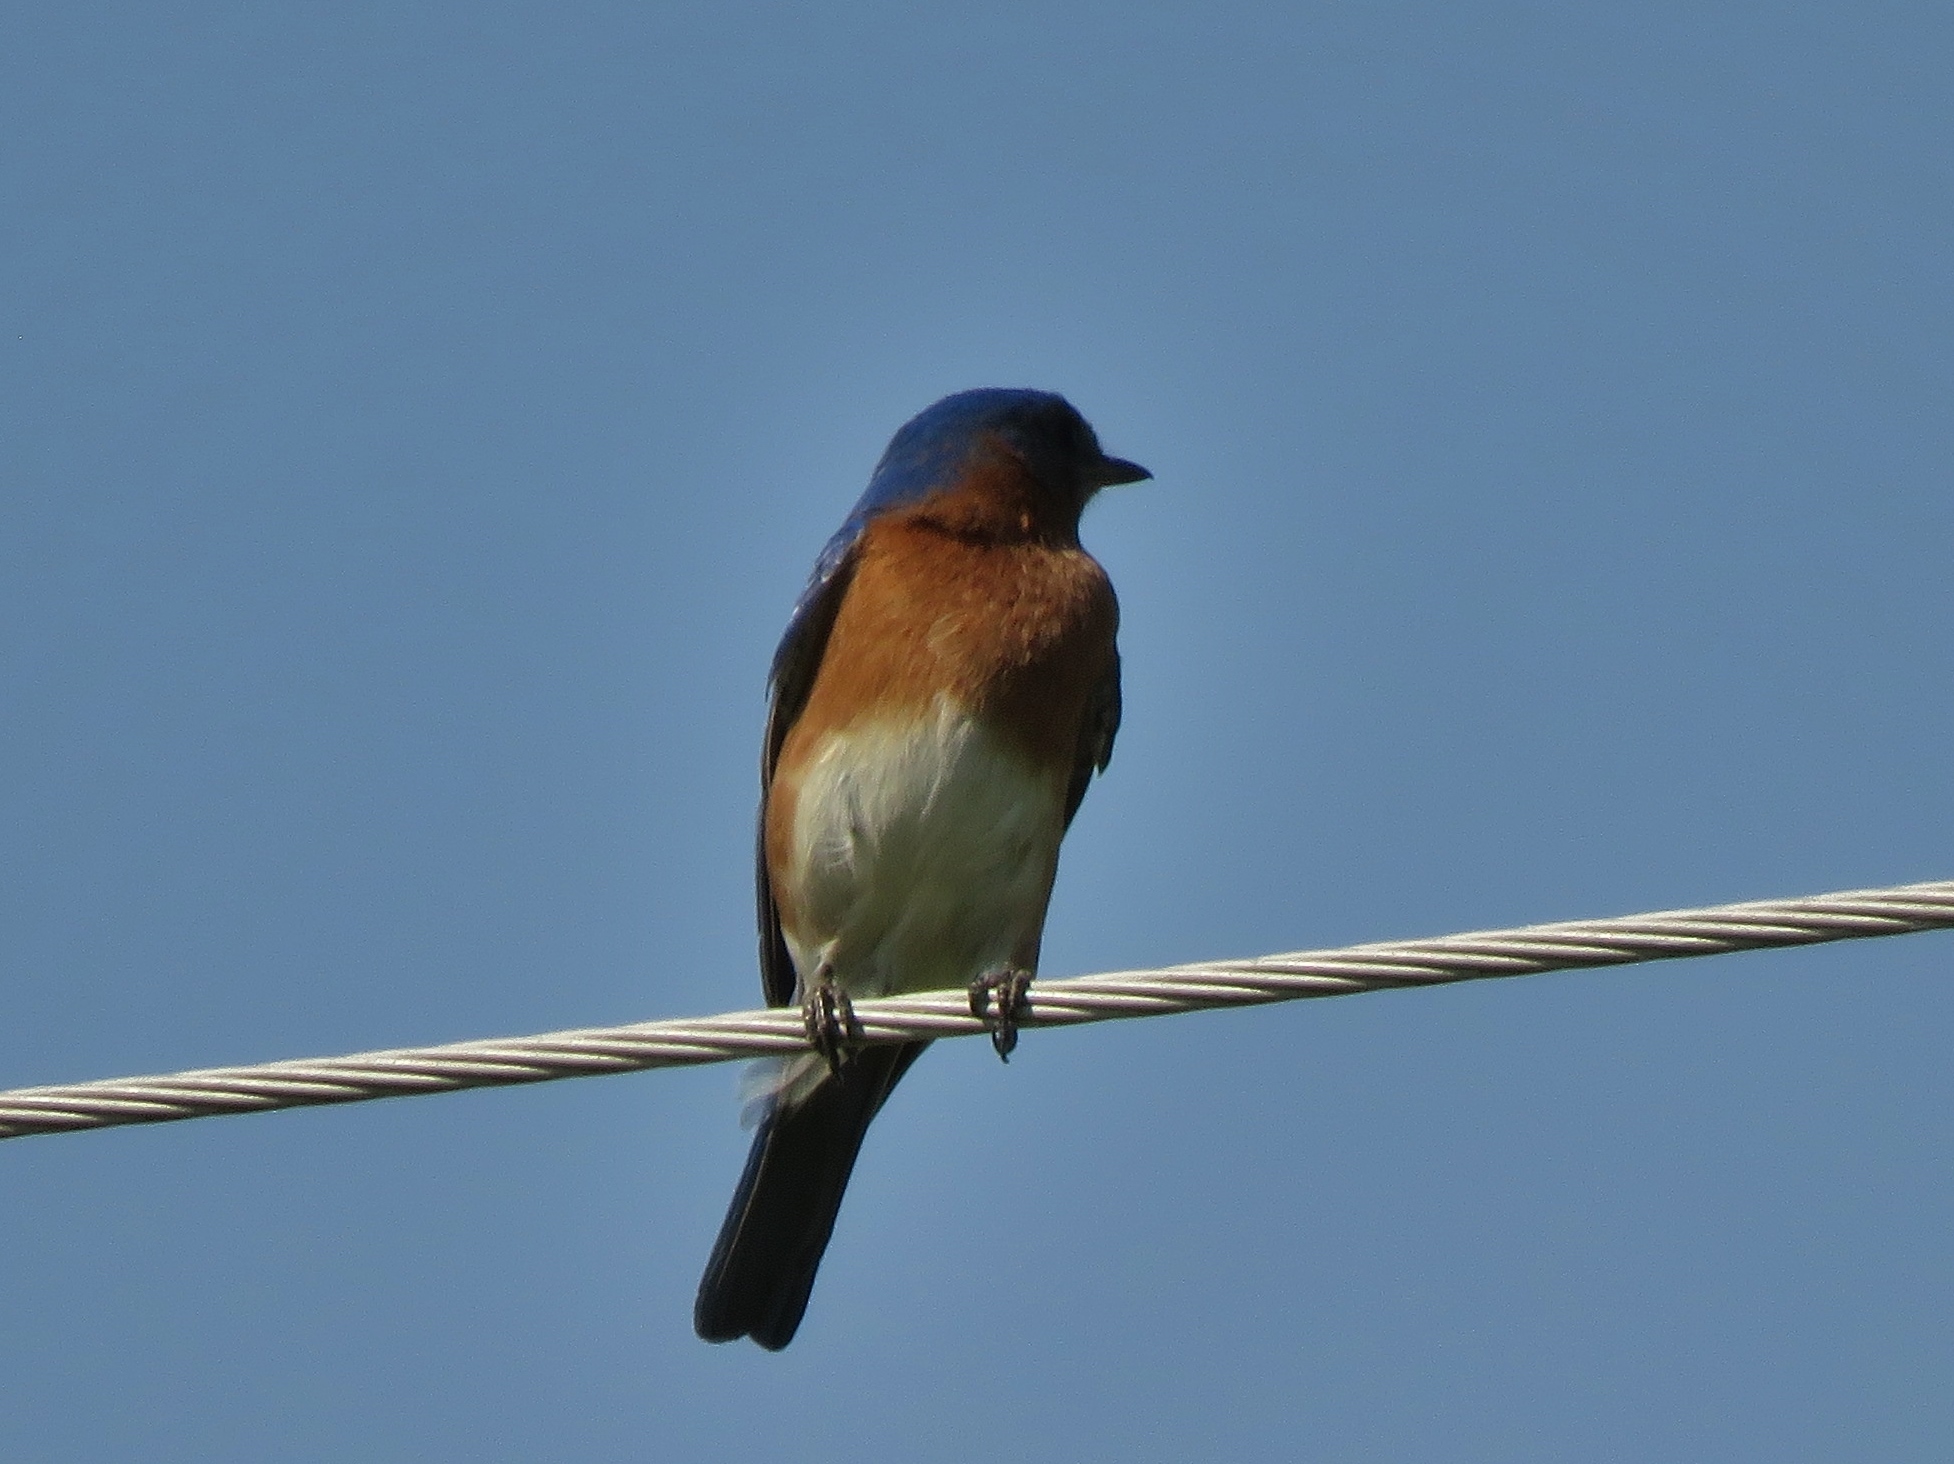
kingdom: Animalia
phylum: Chordata
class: Aves
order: Passeriformes
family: Turdidae
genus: Sialia
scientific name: Sialia sialis
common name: Eastern bluebird
